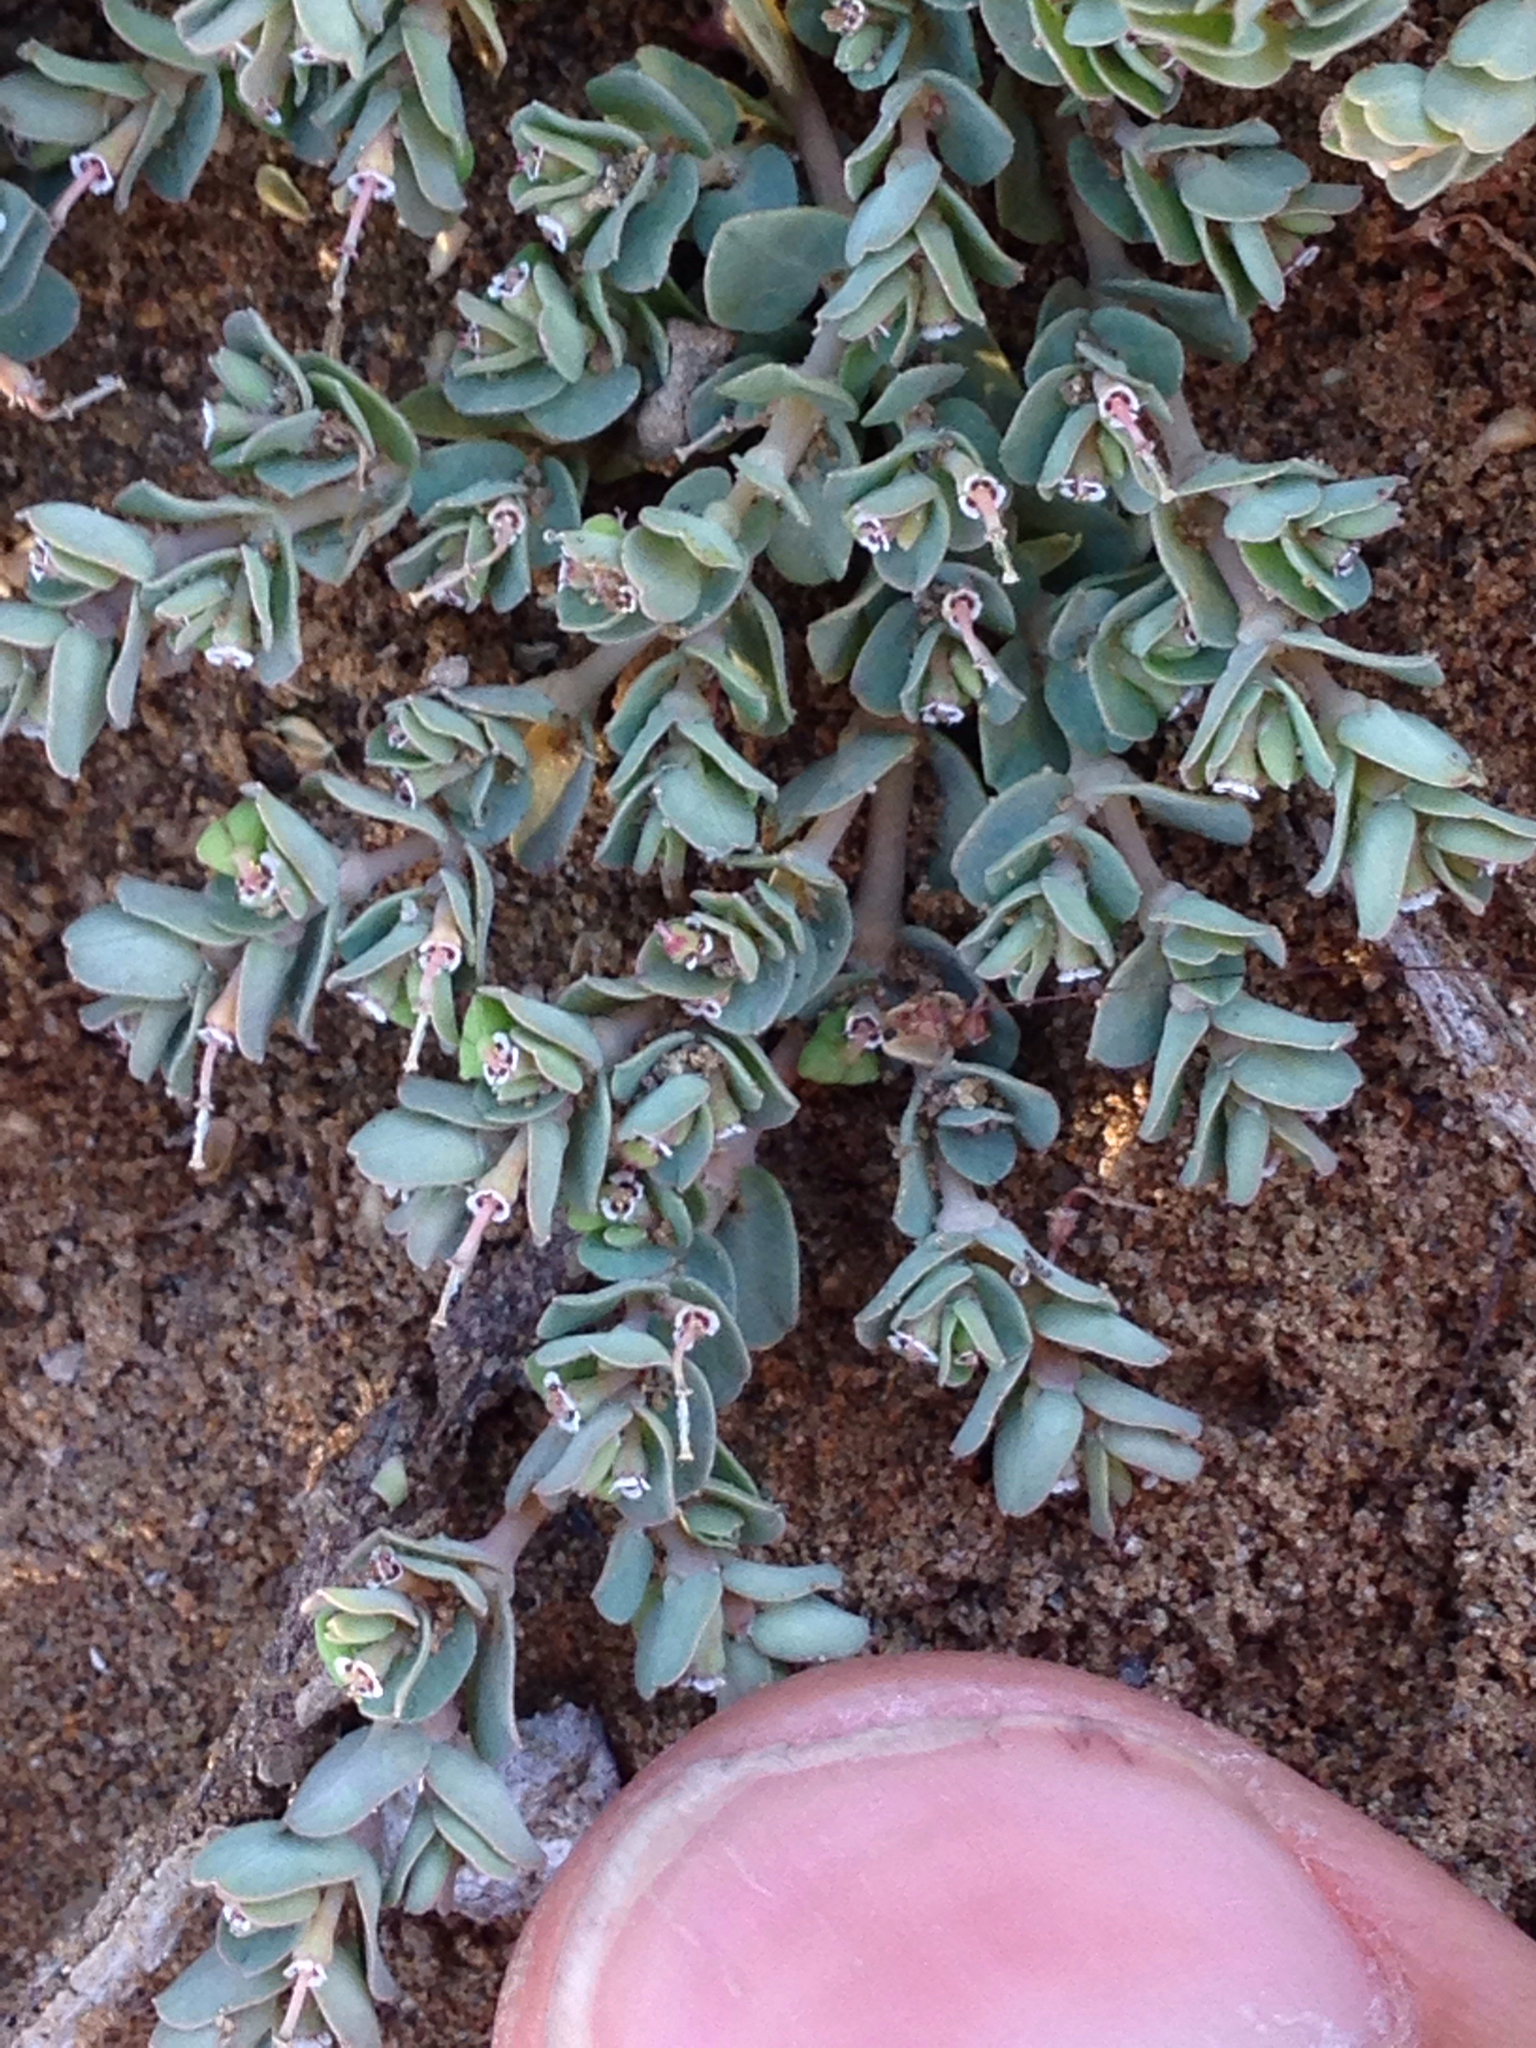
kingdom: Plantae
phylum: Tracheophyta
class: Magnoliopsida
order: Malpighiales
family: Euphorbiaceae
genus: Euphorbia
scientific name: Euphorbia serpens
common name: Matted sandmat
